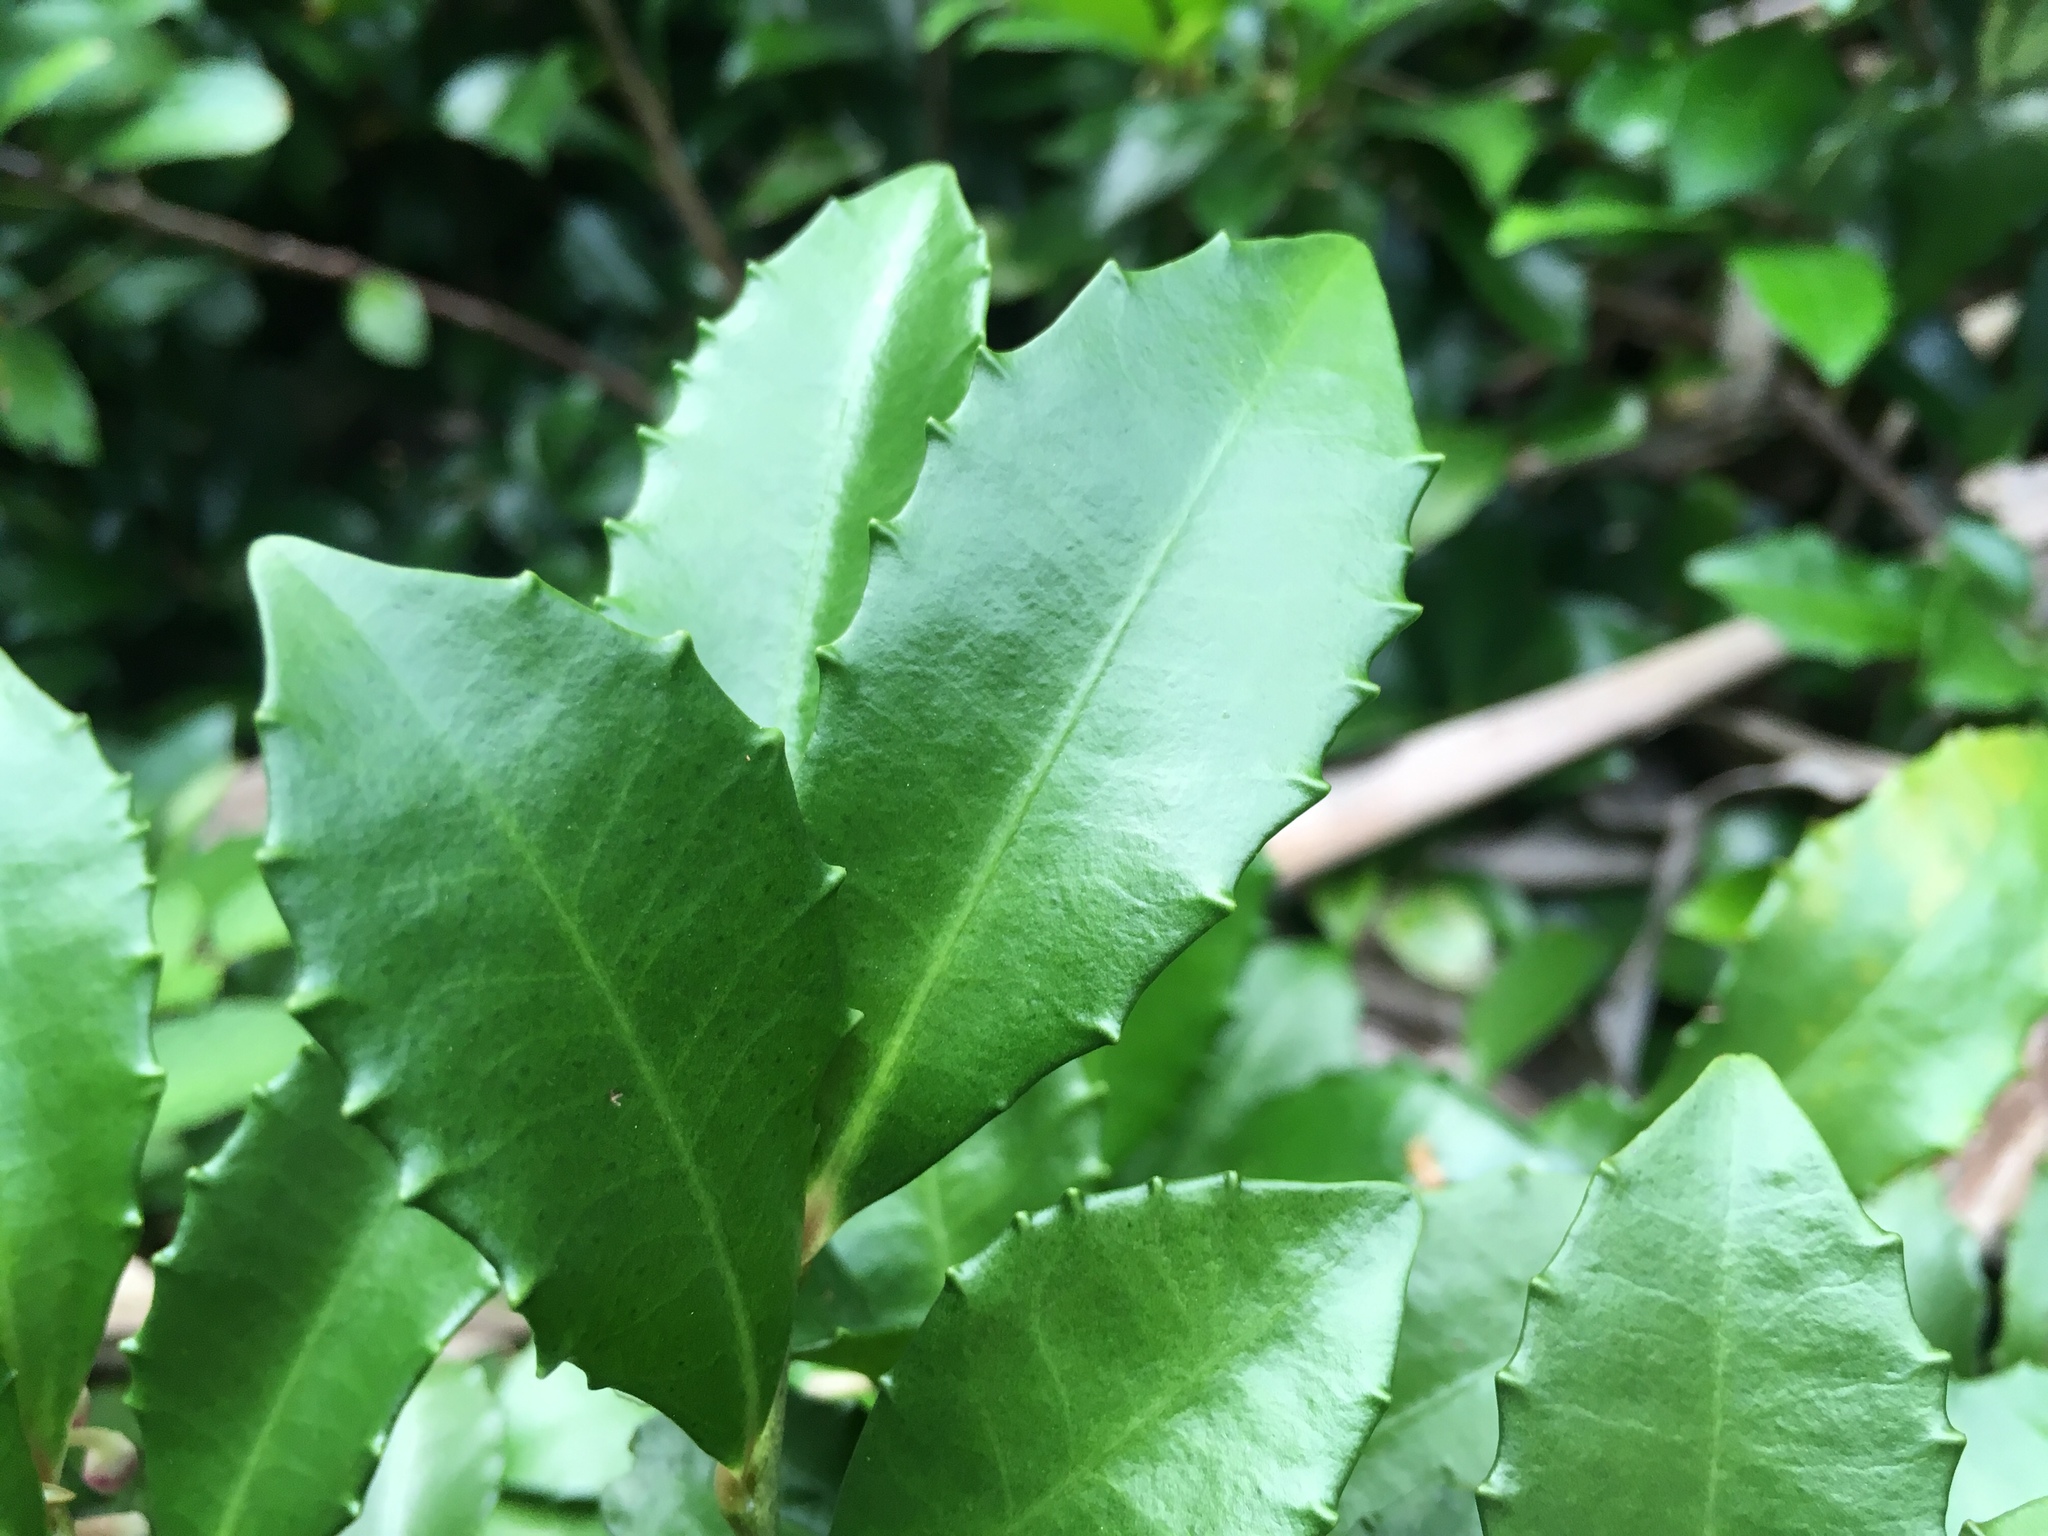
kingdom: Plantae
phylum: Tracheophyta
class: Magnoliopsida
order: Ericales
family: Primulaceae
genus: Ardisia
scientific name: Ardisia cornudentata
